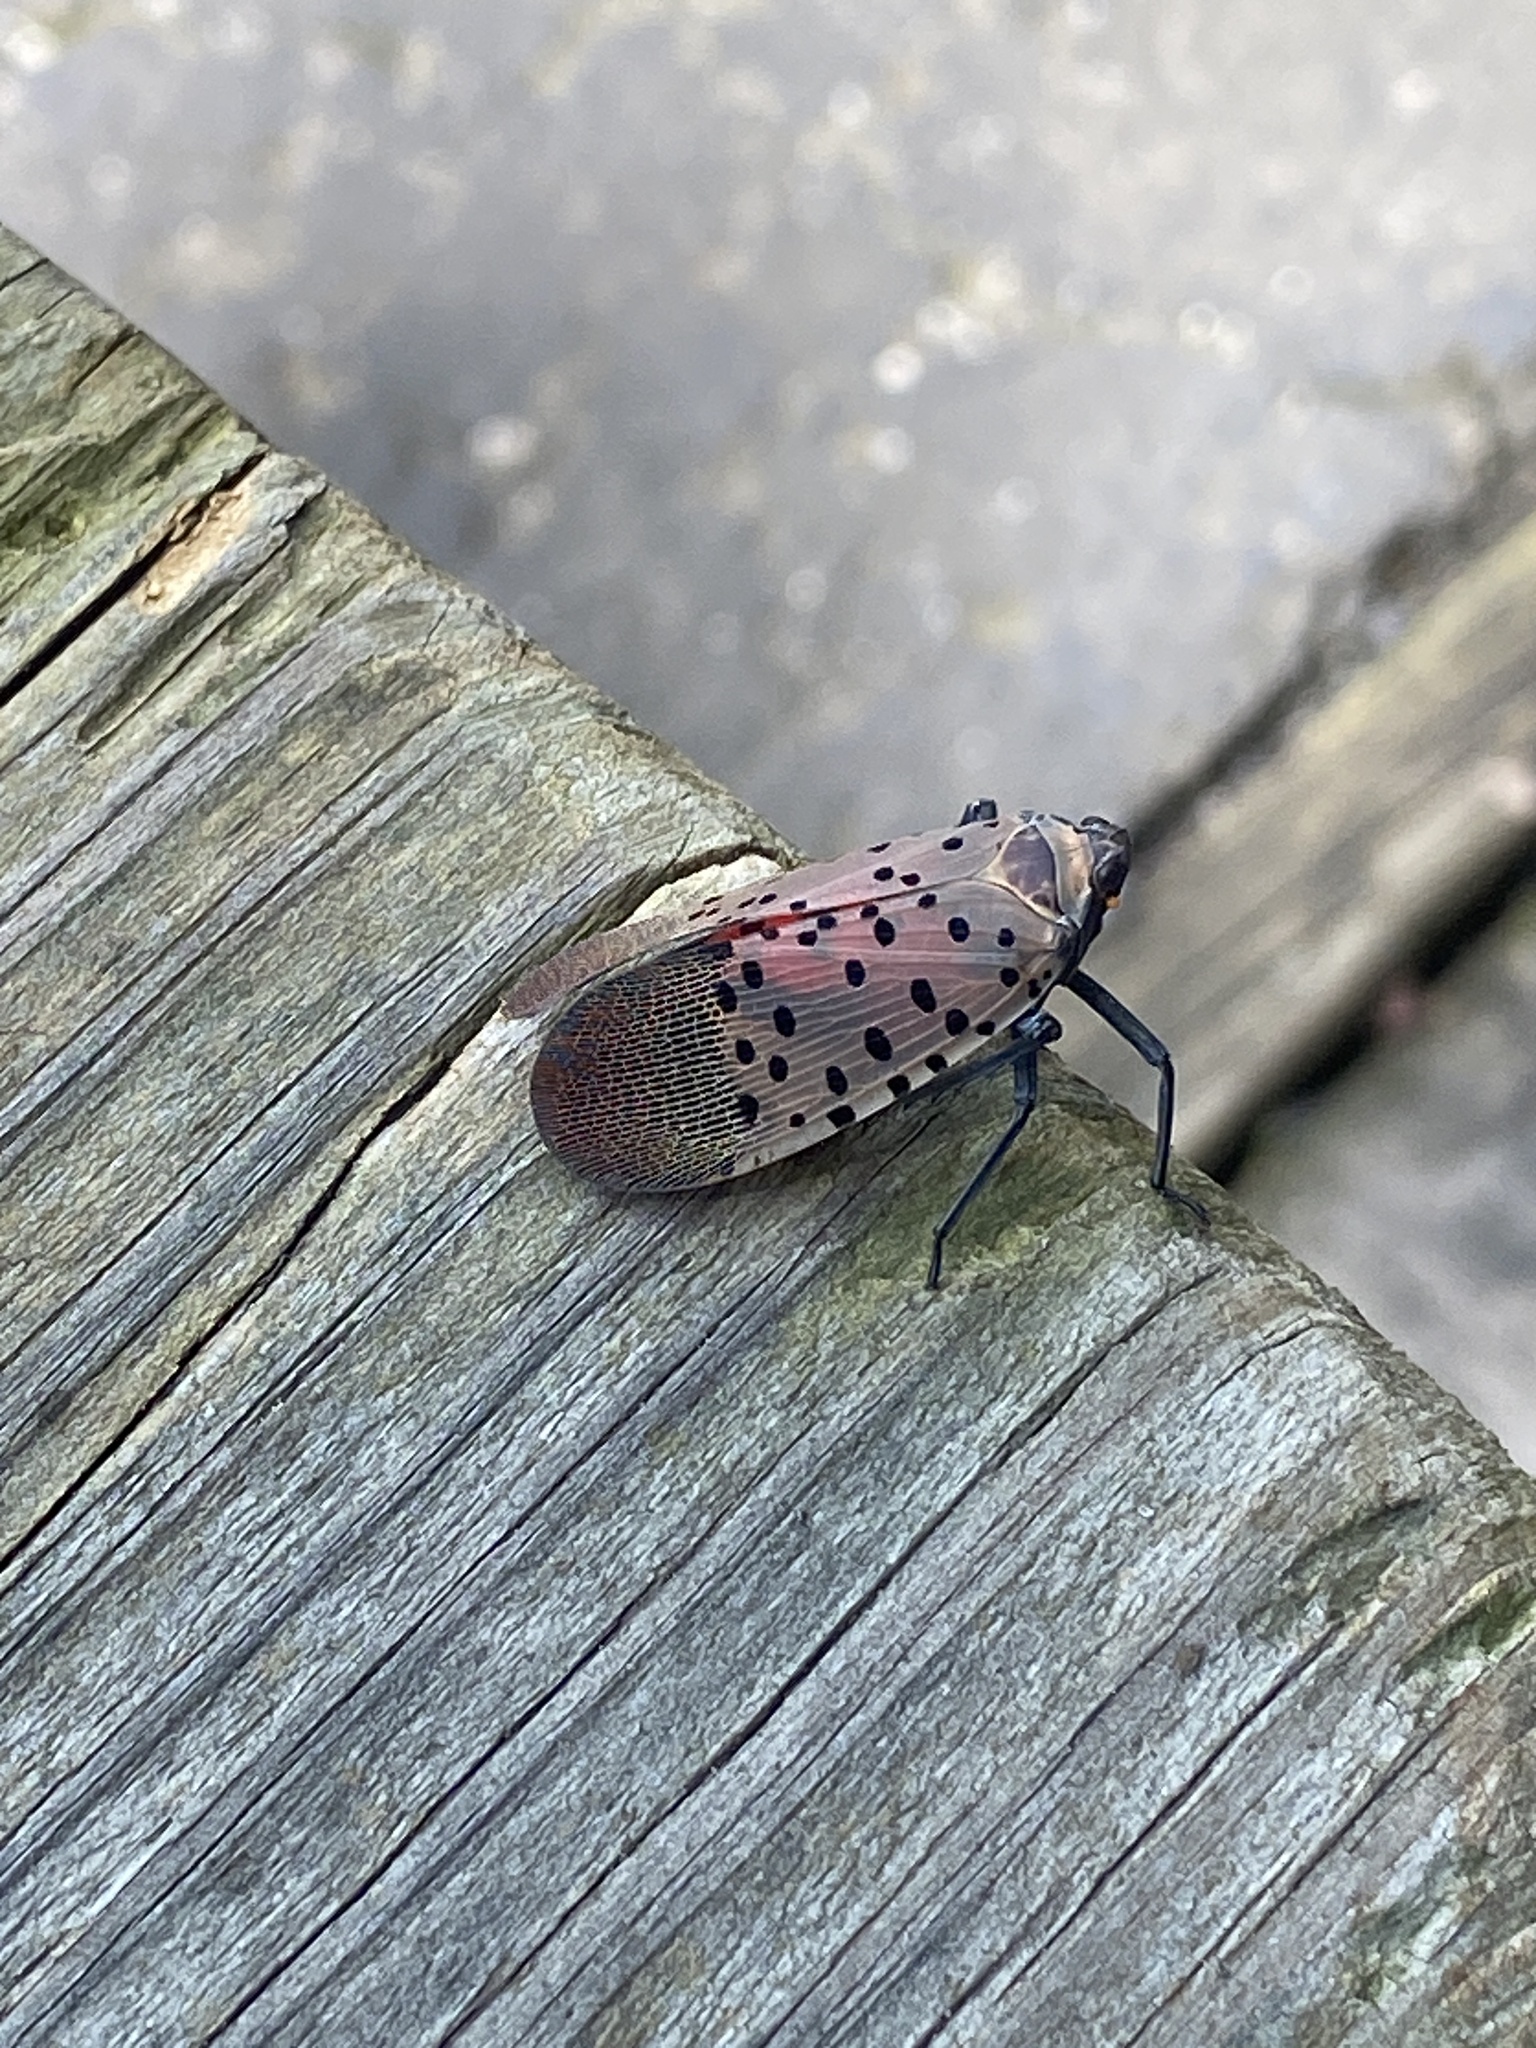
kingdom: Animalia
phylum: Arthropoda
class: Insecta
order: Hemiptera
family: Fulgoridae
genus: Lycorma
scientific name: Lycorma delicatula
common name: Spotted lanternfly
